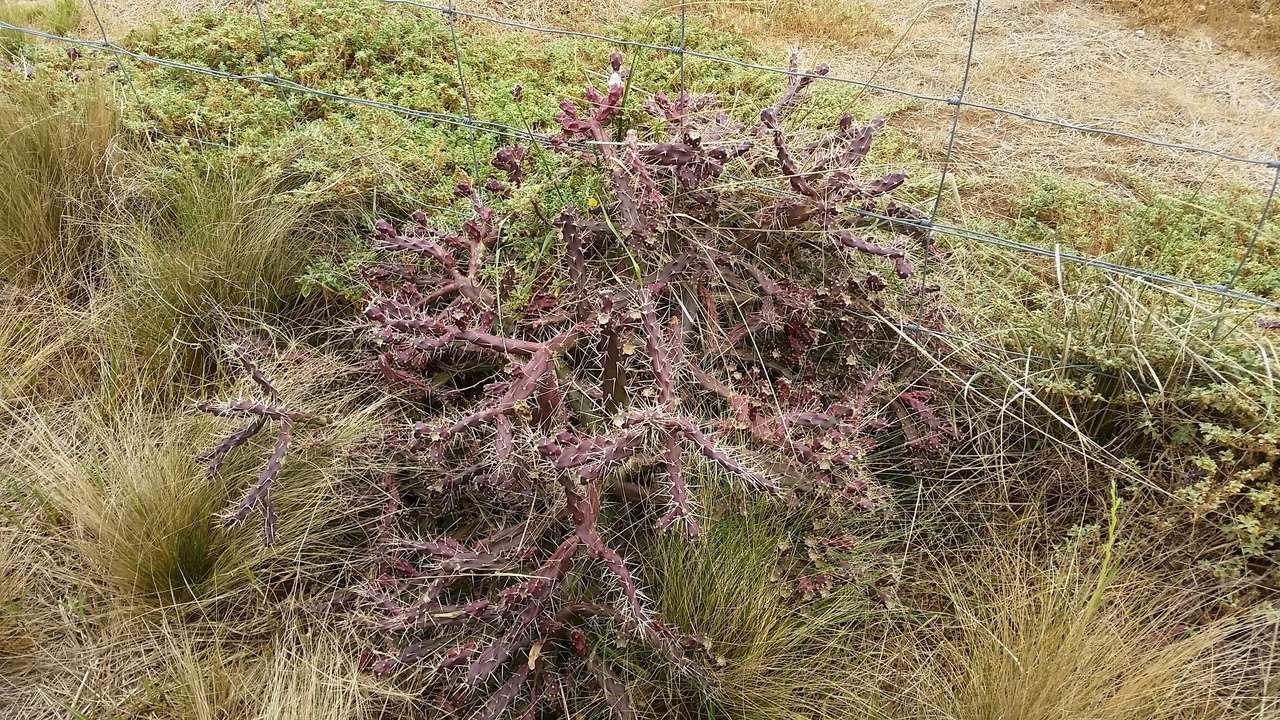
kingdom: Plantae
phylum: Tracheophyta
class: Magnoliopsida
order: Caryophyllales
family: Cactaceae
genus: Opuntia
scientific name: Opuntia aurantiaca
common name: Jointed pricklypear
